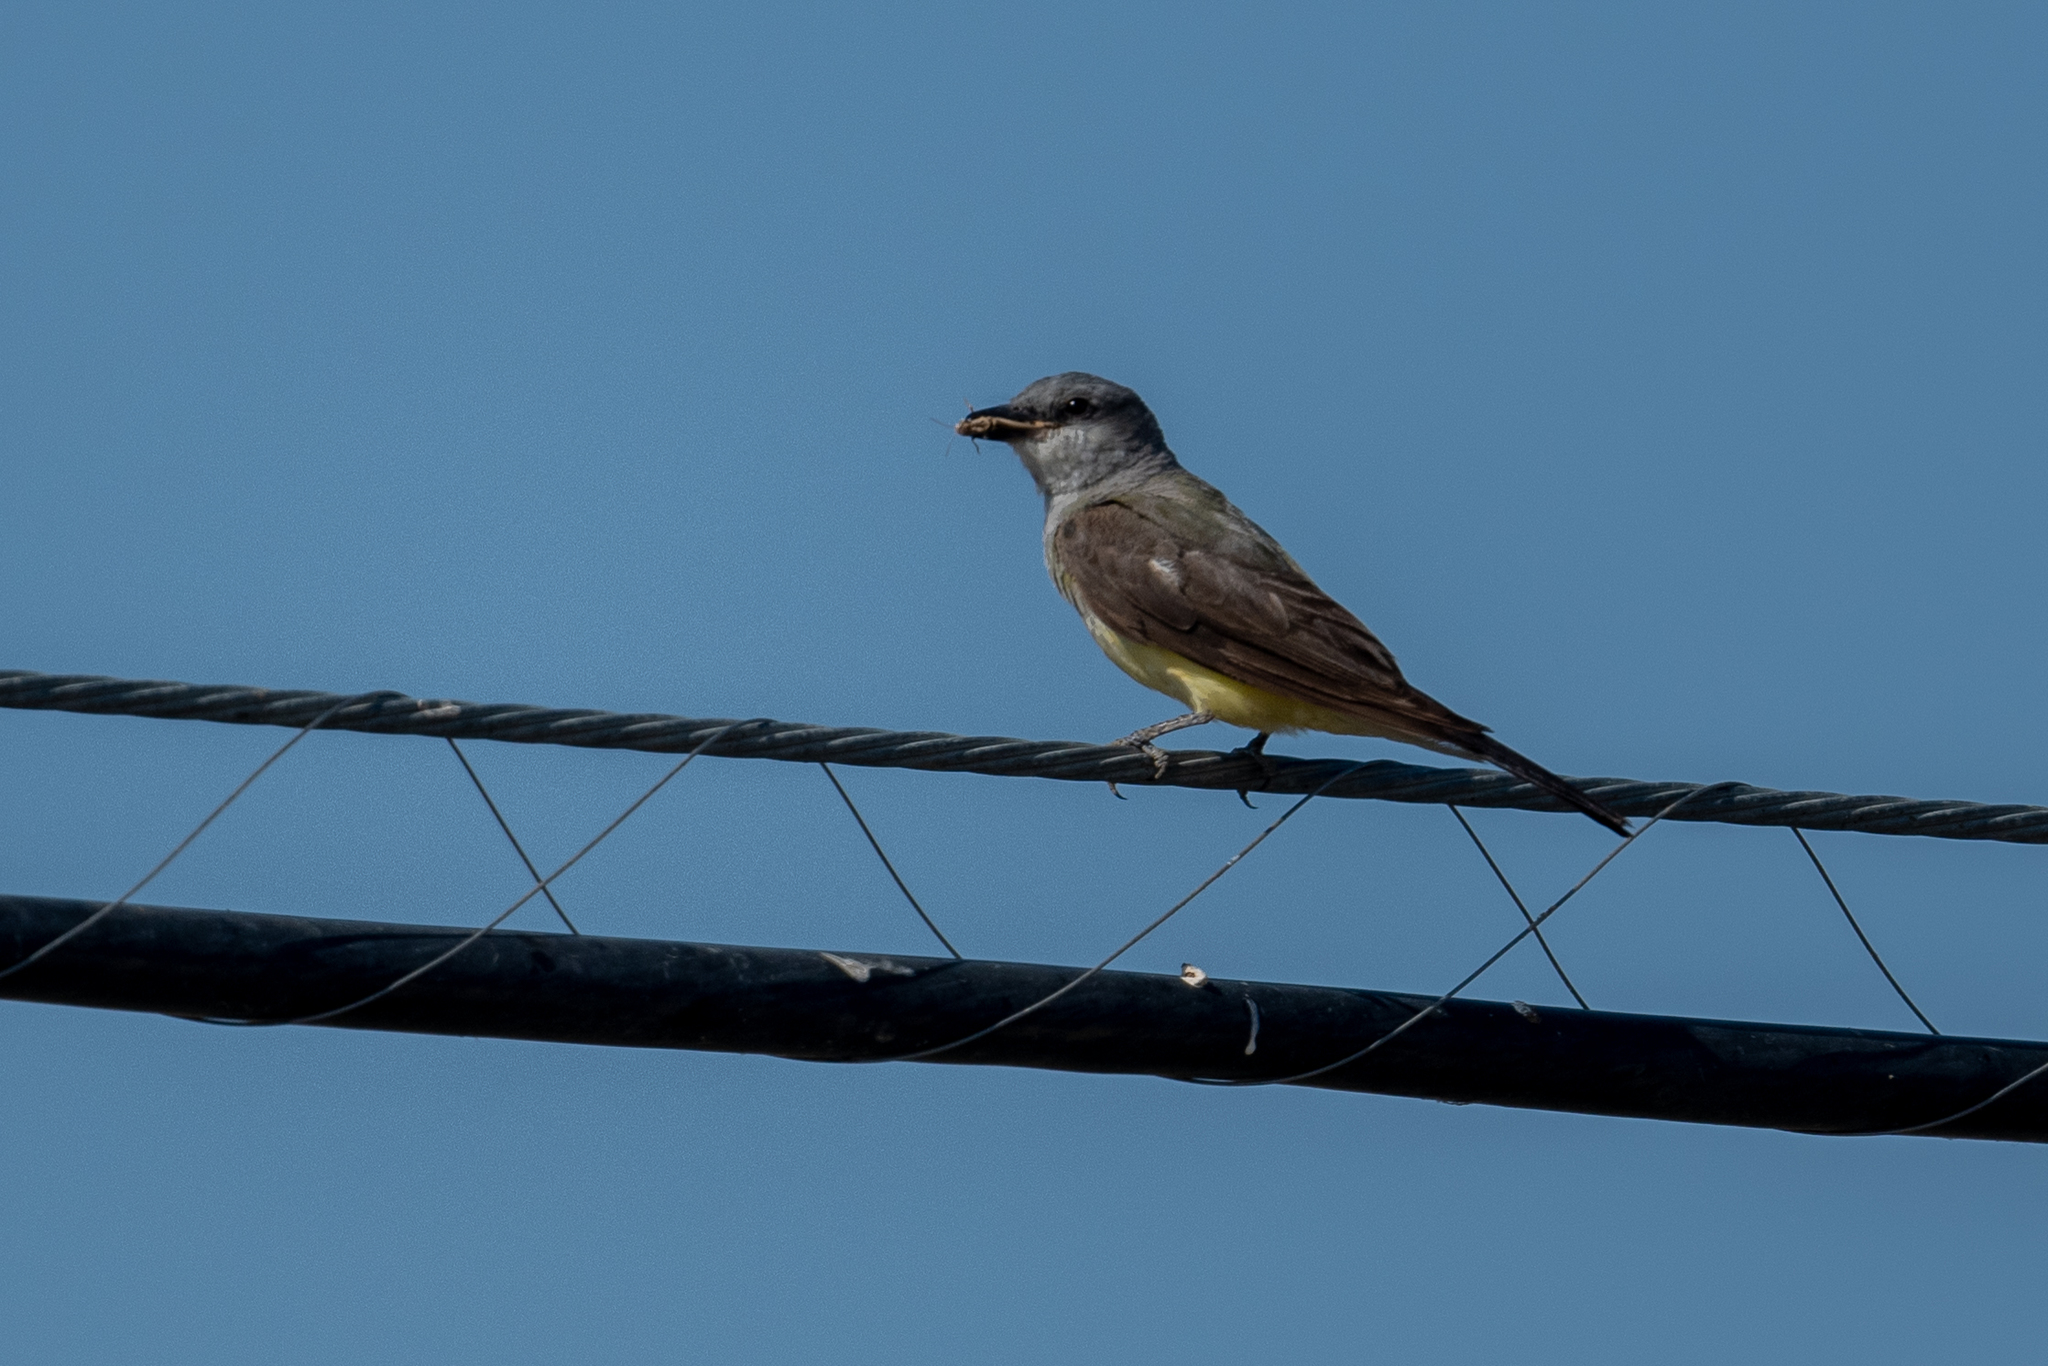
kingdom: Animalia
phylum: Chordata
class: Aves
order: Passeriformes
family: Tyrannidae
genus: Tyrannus
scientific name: Tyrannus verticalis
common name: Western kingbird
